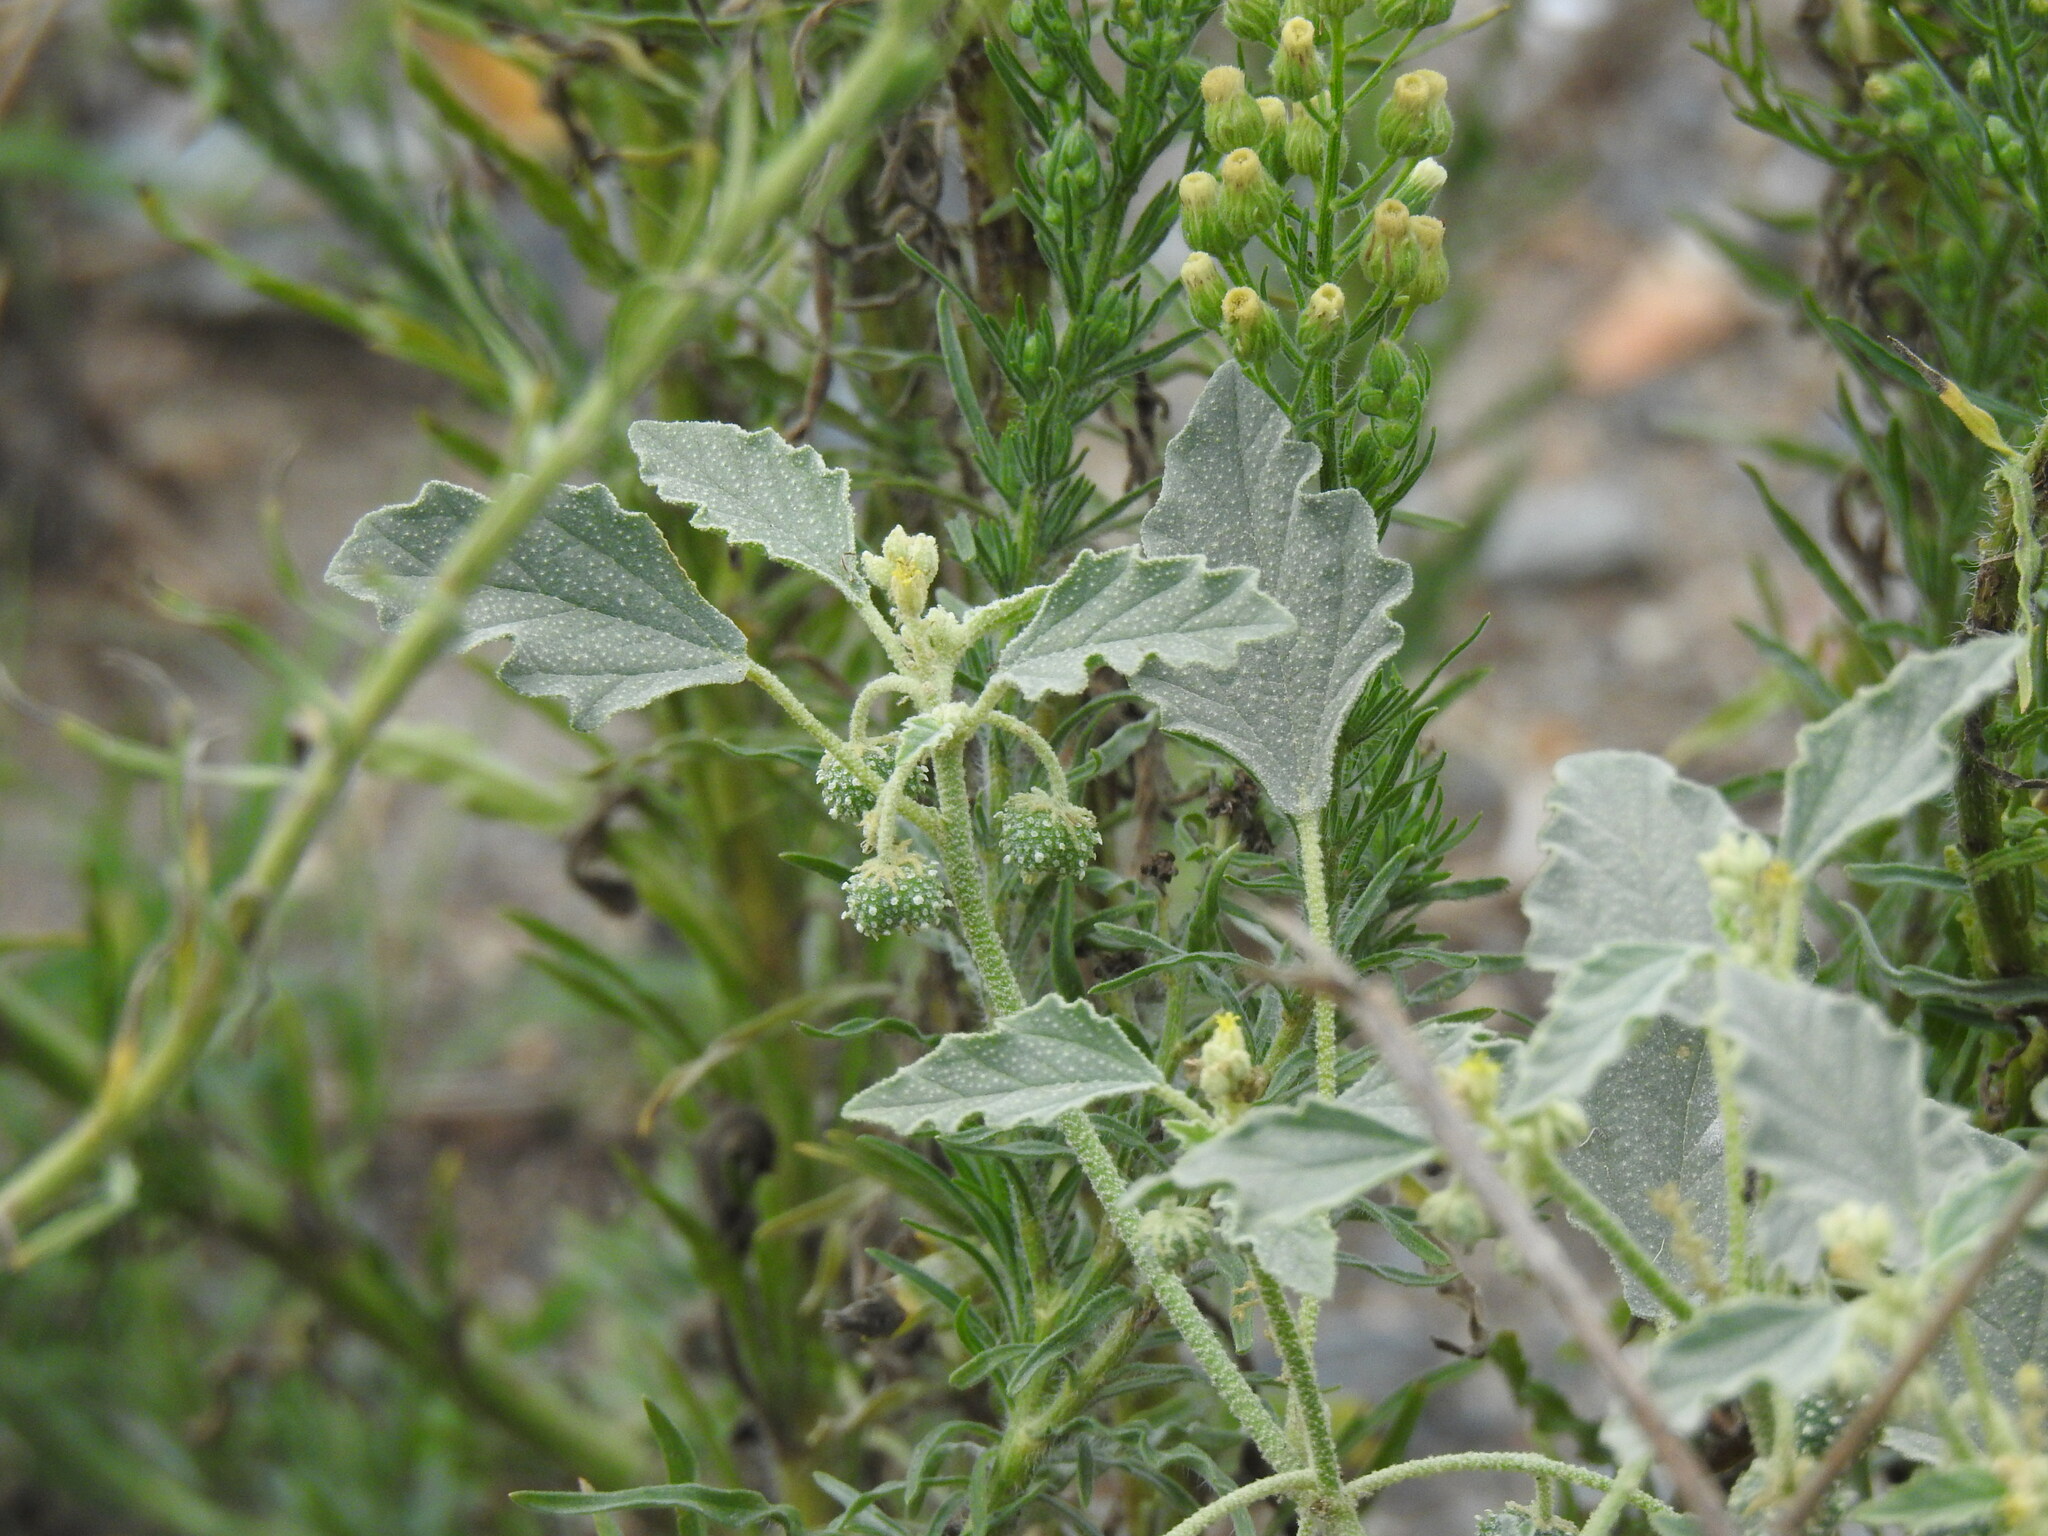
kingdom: Plantae
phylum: Tracheophyta
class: Magnoliopsida
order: Malpighiales
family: Euphorbiaceae
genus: Chrozophora
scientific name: Chrozophora tinctoria
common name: Dyer's litmus
